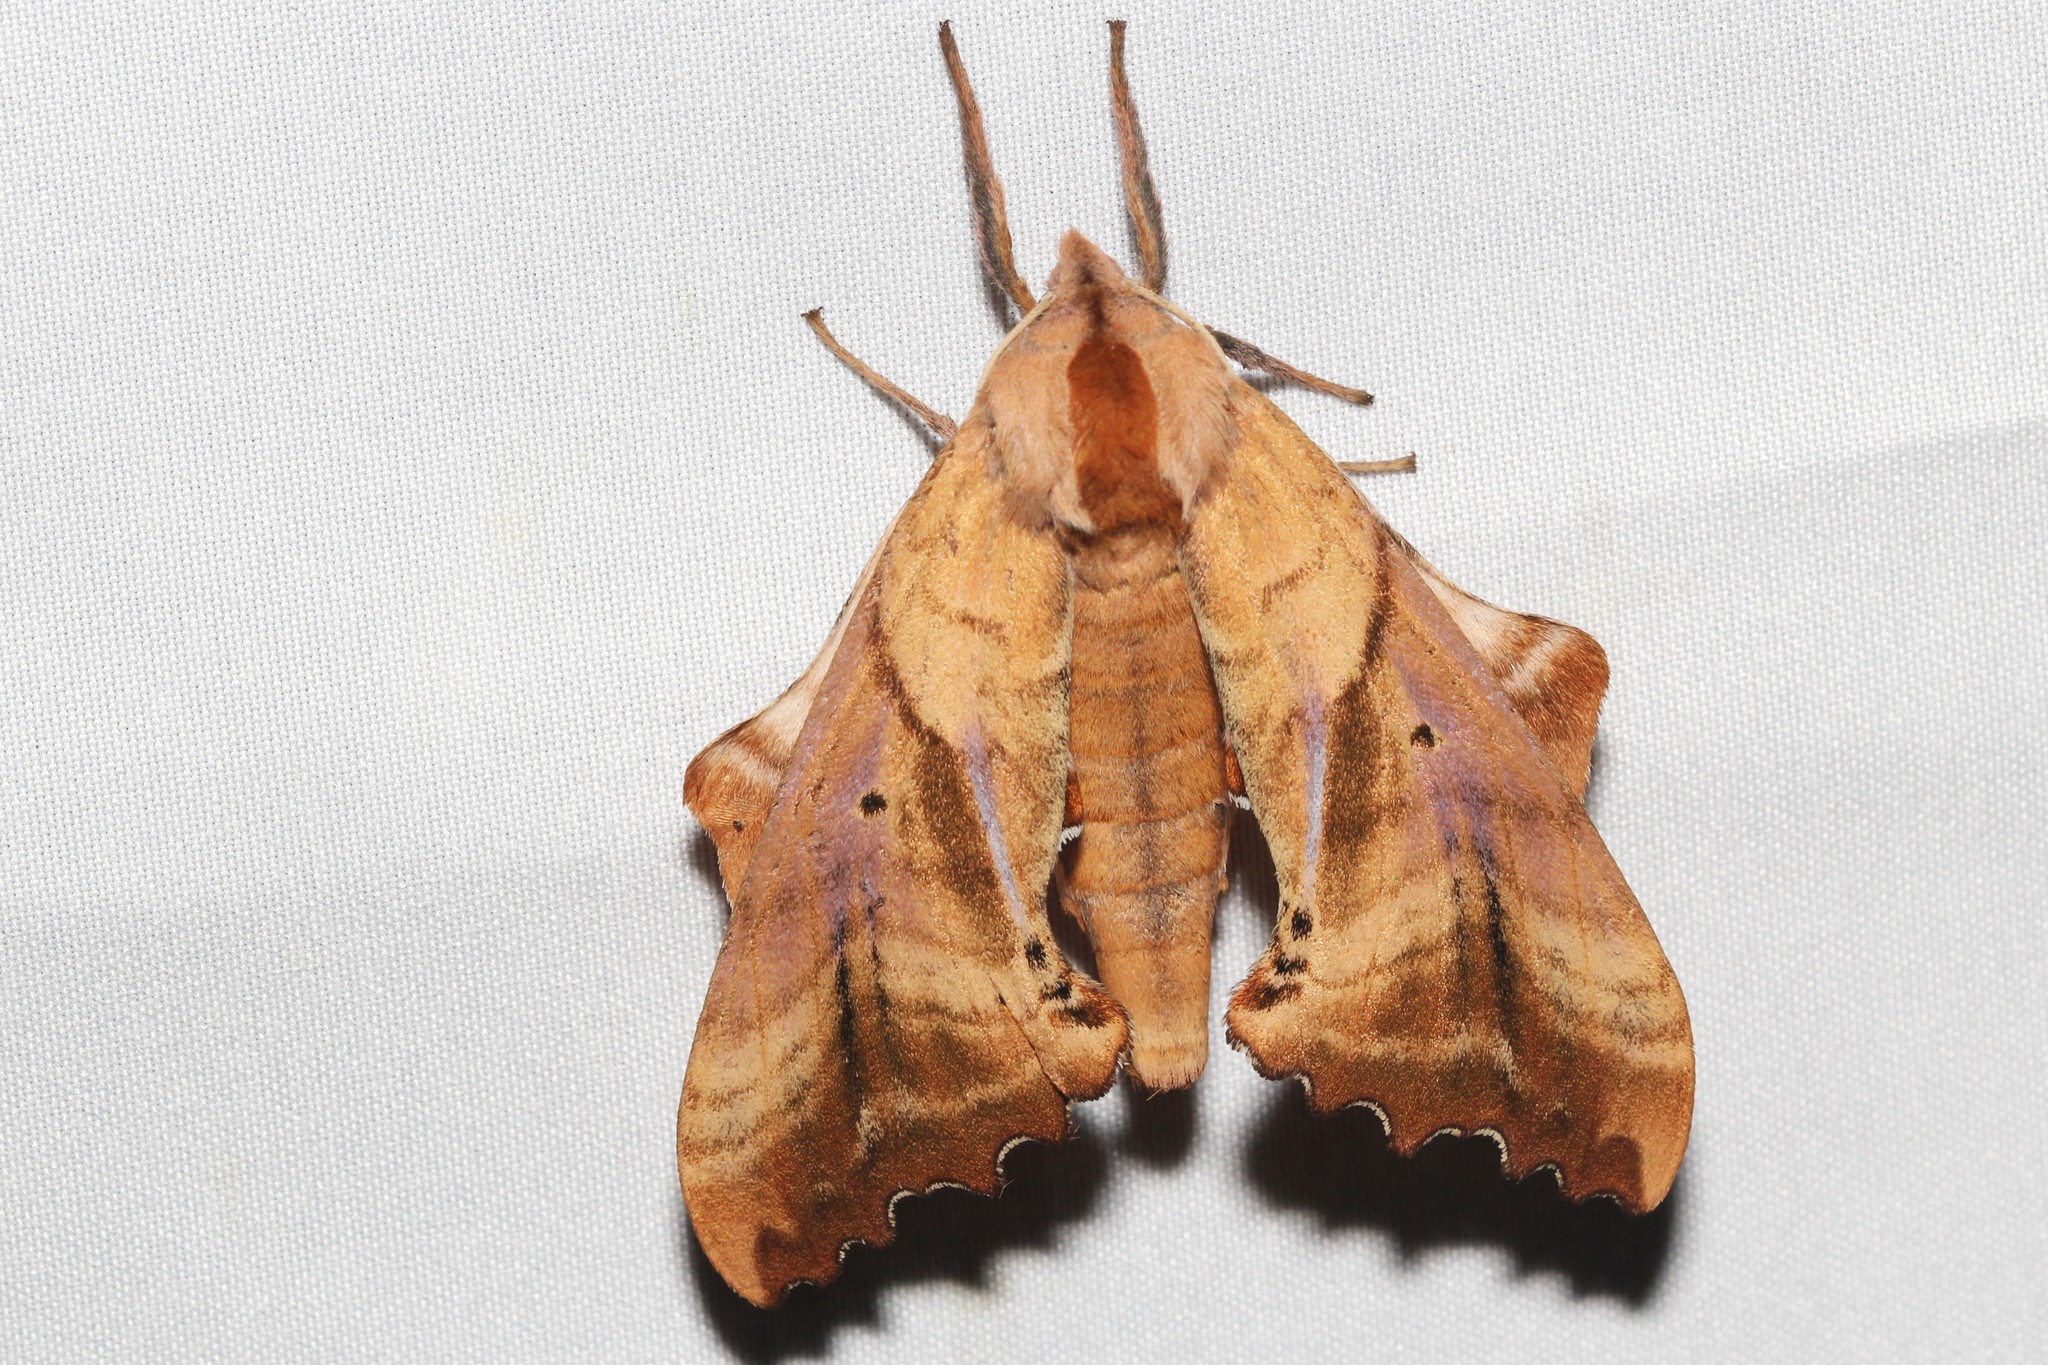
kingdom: Animalia
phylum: Arthropoda
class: Insecta
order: Lepidoptera
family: Sphingidae
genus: Paonias
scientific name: Paonias excaecata
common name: Blind-eyed sphinx
